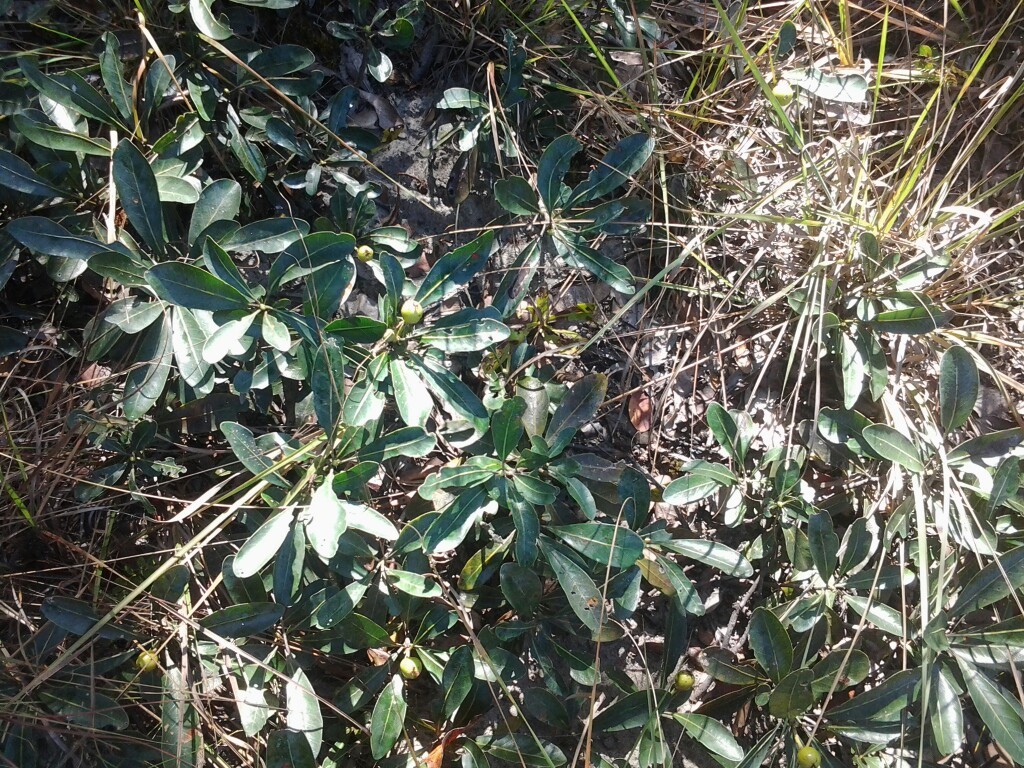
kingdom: Plantae
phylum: Tracheophyta
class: Magnoliopsida
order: Malpighiales
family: Phyllanthaceae
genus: Uapaca
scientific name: Uapaca nitida
